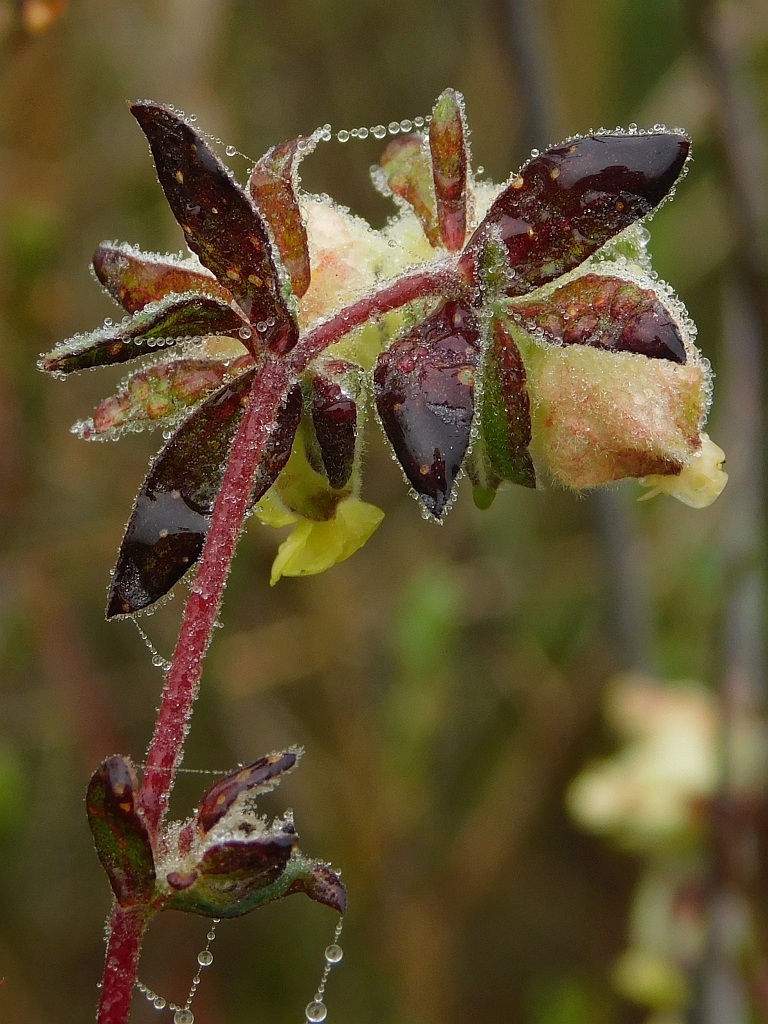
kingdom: Plantae
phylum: Tracheophyta
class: Magnoliopsida
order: Malvales
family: Malvaceae
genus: Hermannia
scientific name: Hermannia hyssopifolia
